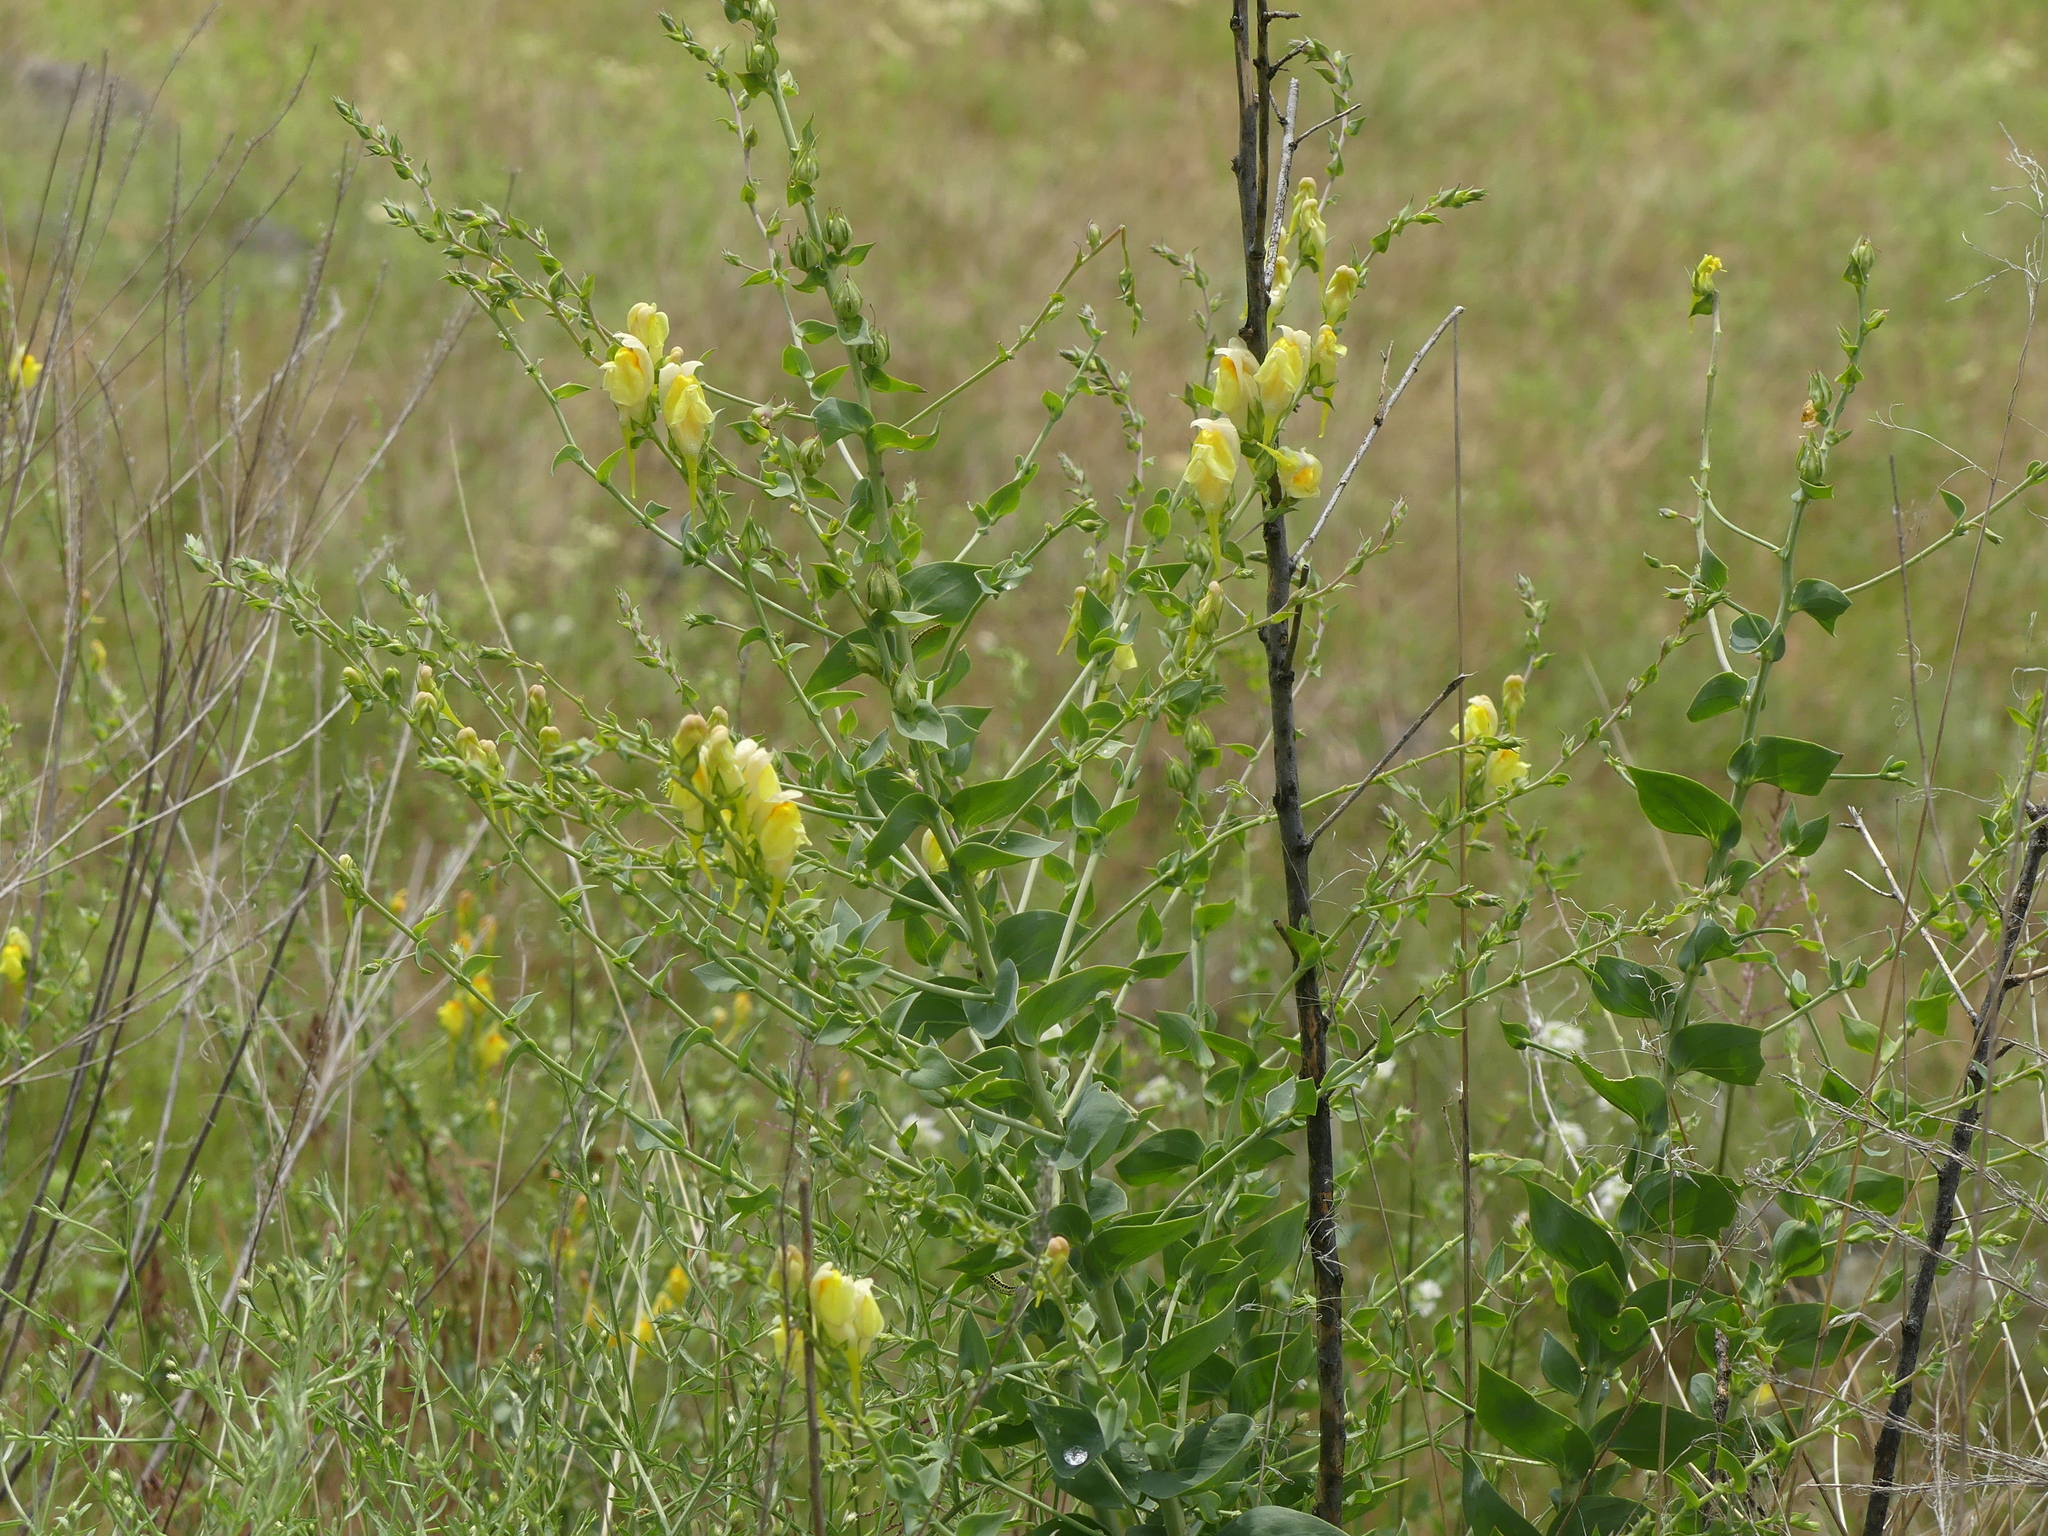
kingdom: Plantae
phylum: Tracheophyta
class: Magnoliopsida
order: Lamiales
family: Plantaginaceae
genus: Linaria
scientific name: Linaria dalmatica
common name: Dalmatian toadflax
